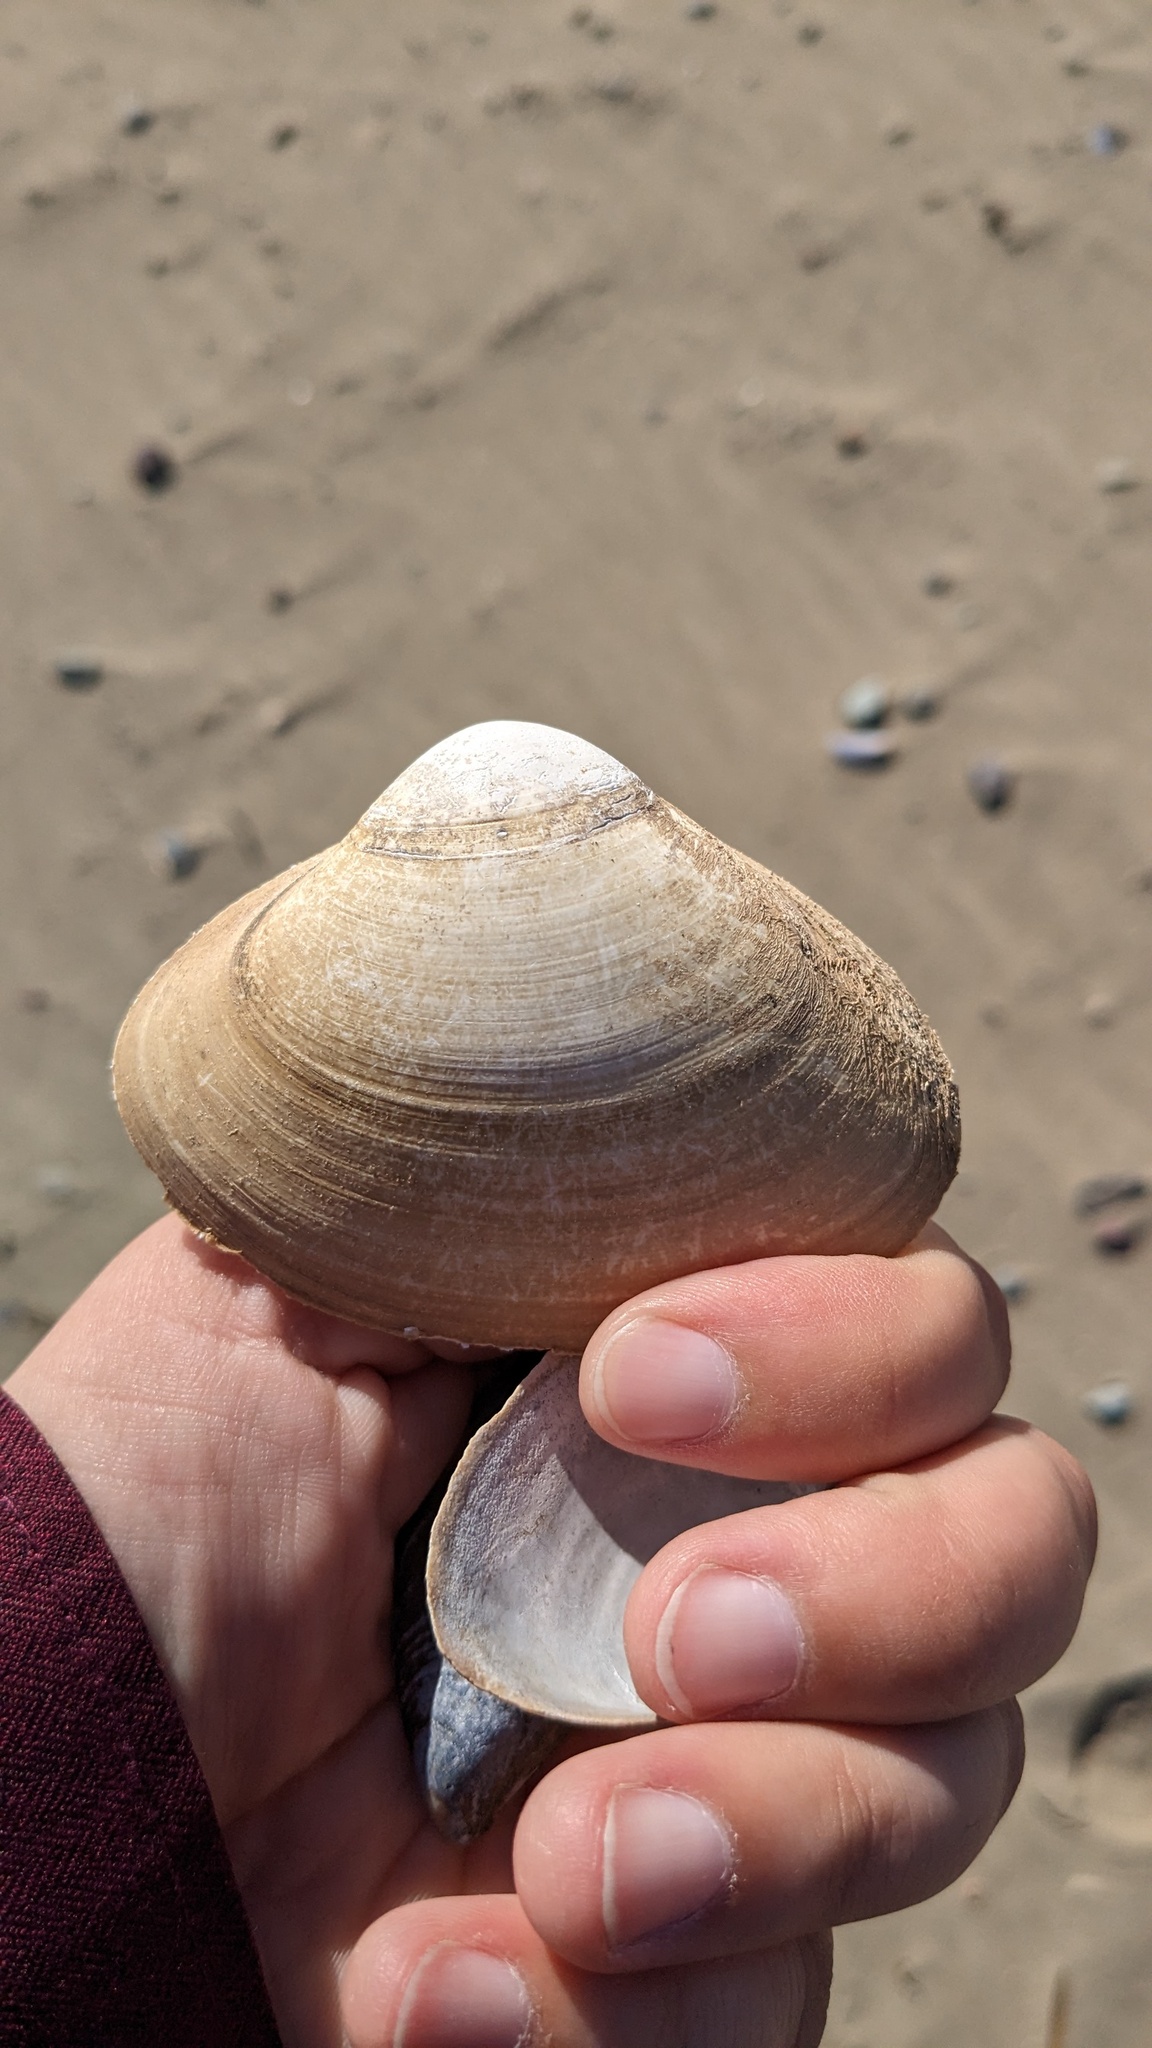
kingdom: Animalia
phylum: Mollusca
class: Bivalvia
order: Venerida
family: Mactridae
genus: Spisula
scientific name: Spisula solidissima
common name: Atlantic surf clam
